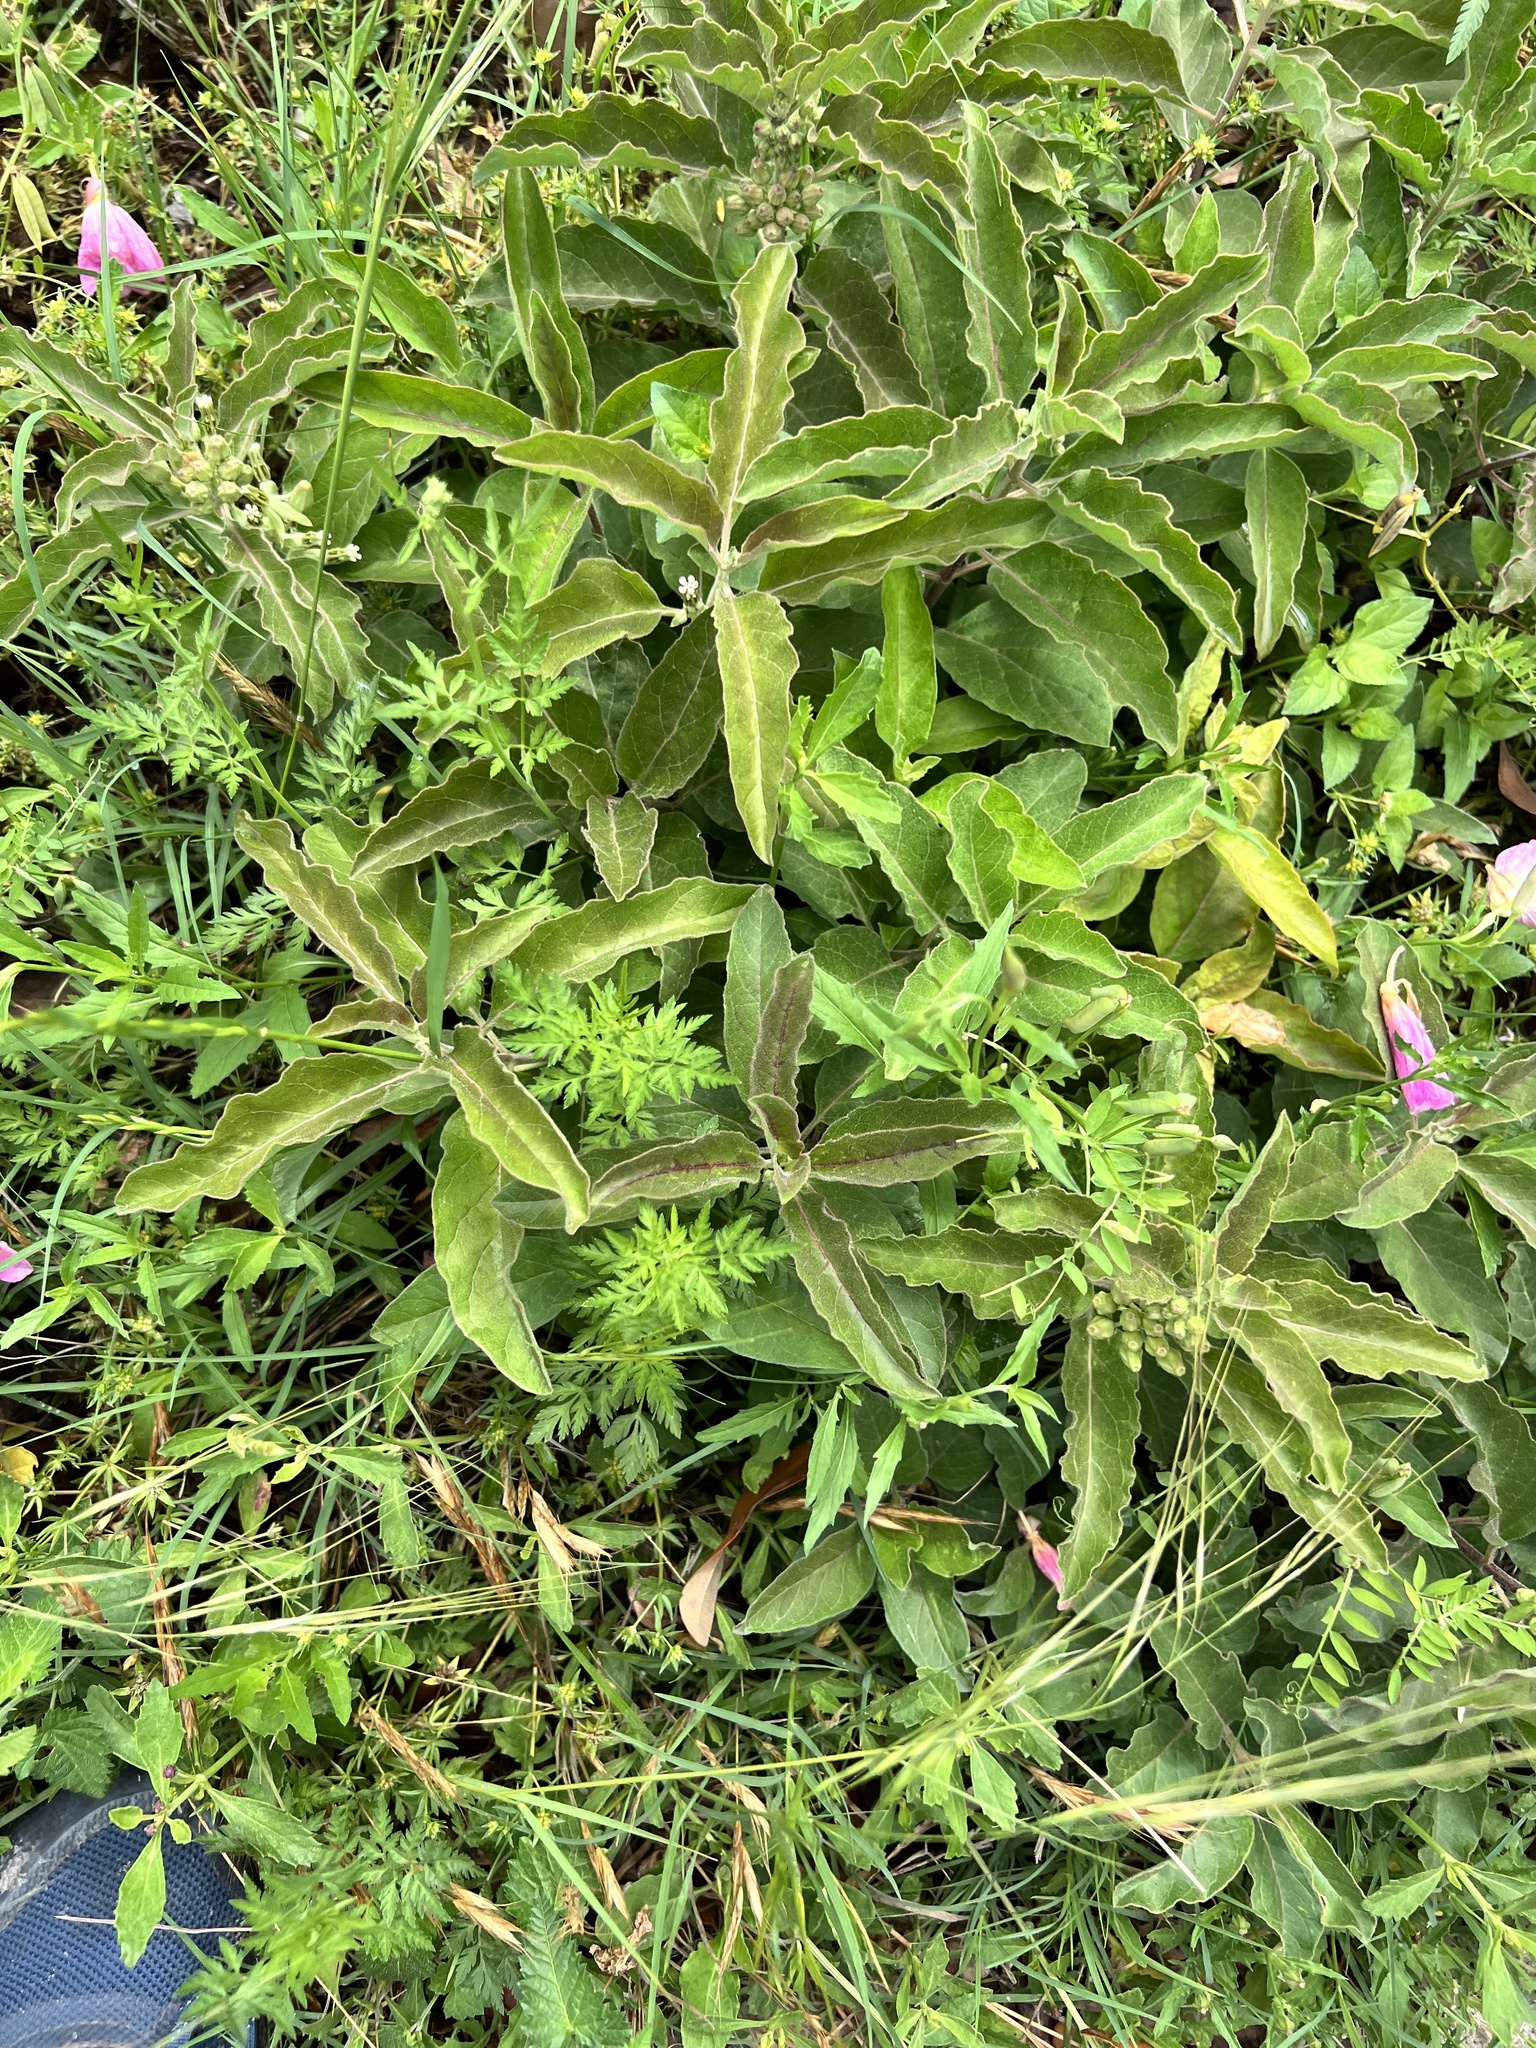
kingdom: Plantae
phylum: Tracheophyta
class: Magnoliopsida
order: Gentianales
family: Apocynaceae
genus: Asclepias
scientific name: Asclepias oenotheroides
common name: Zizotes milkweed
